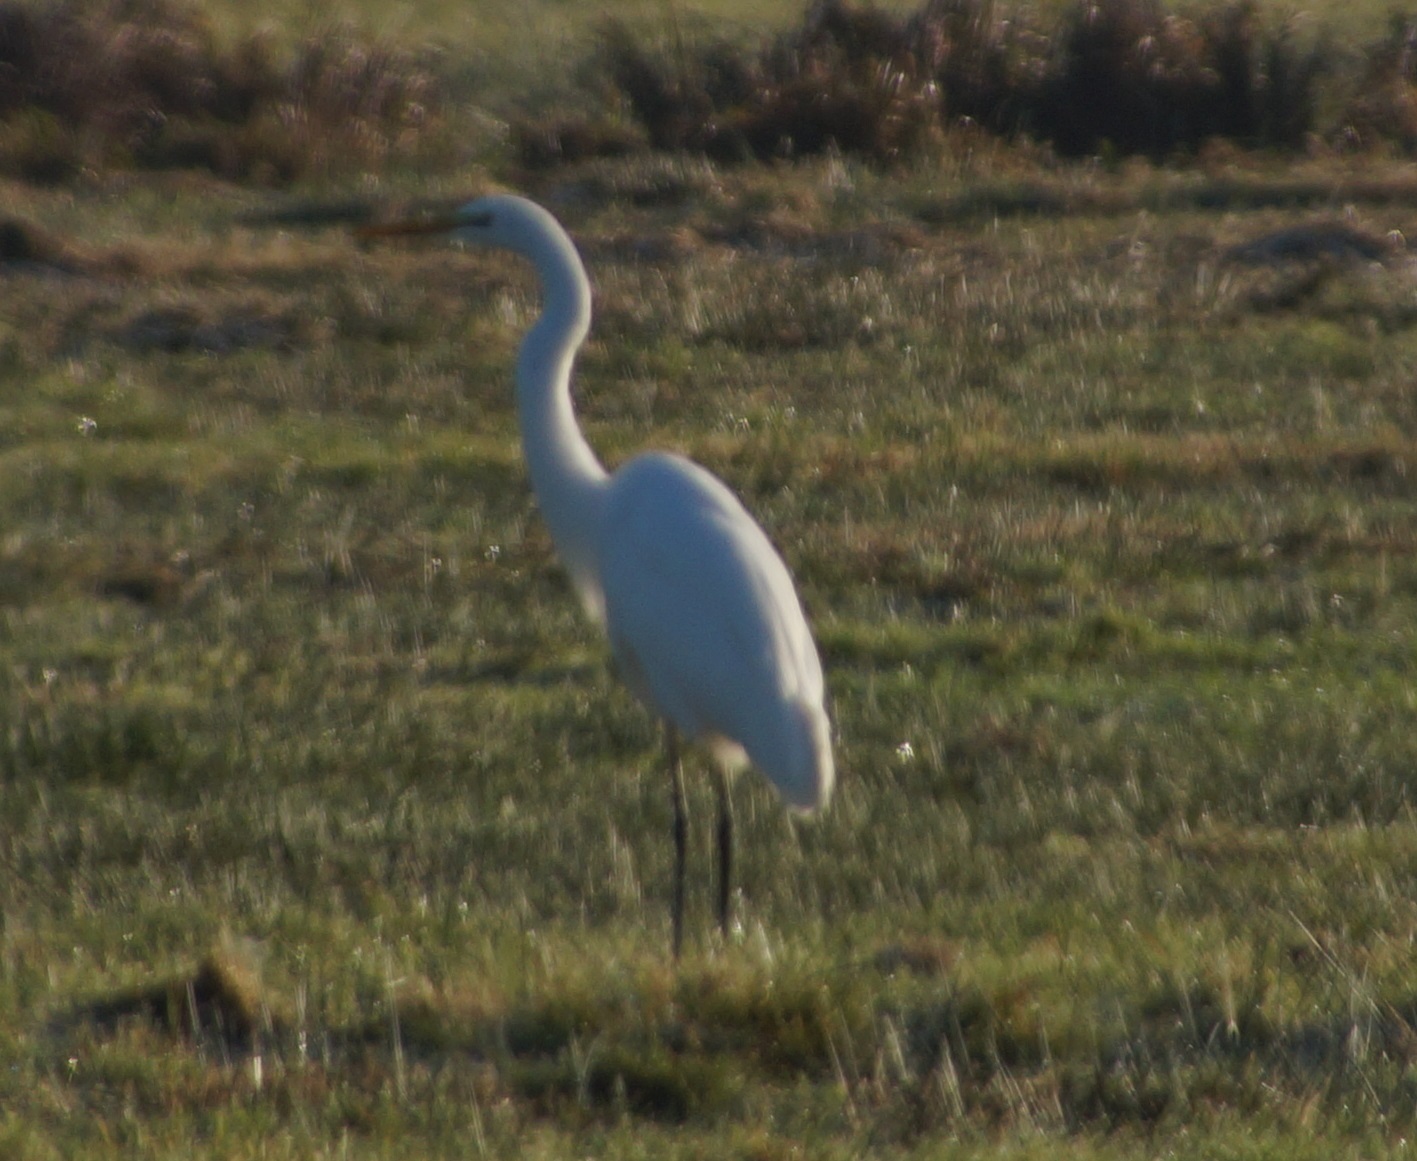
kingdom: Animalia
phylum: Chordata
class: Aves
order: Pelecaniformes
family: Ardeidae
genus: Ardea
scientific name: Ardea alba
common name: Great egret
